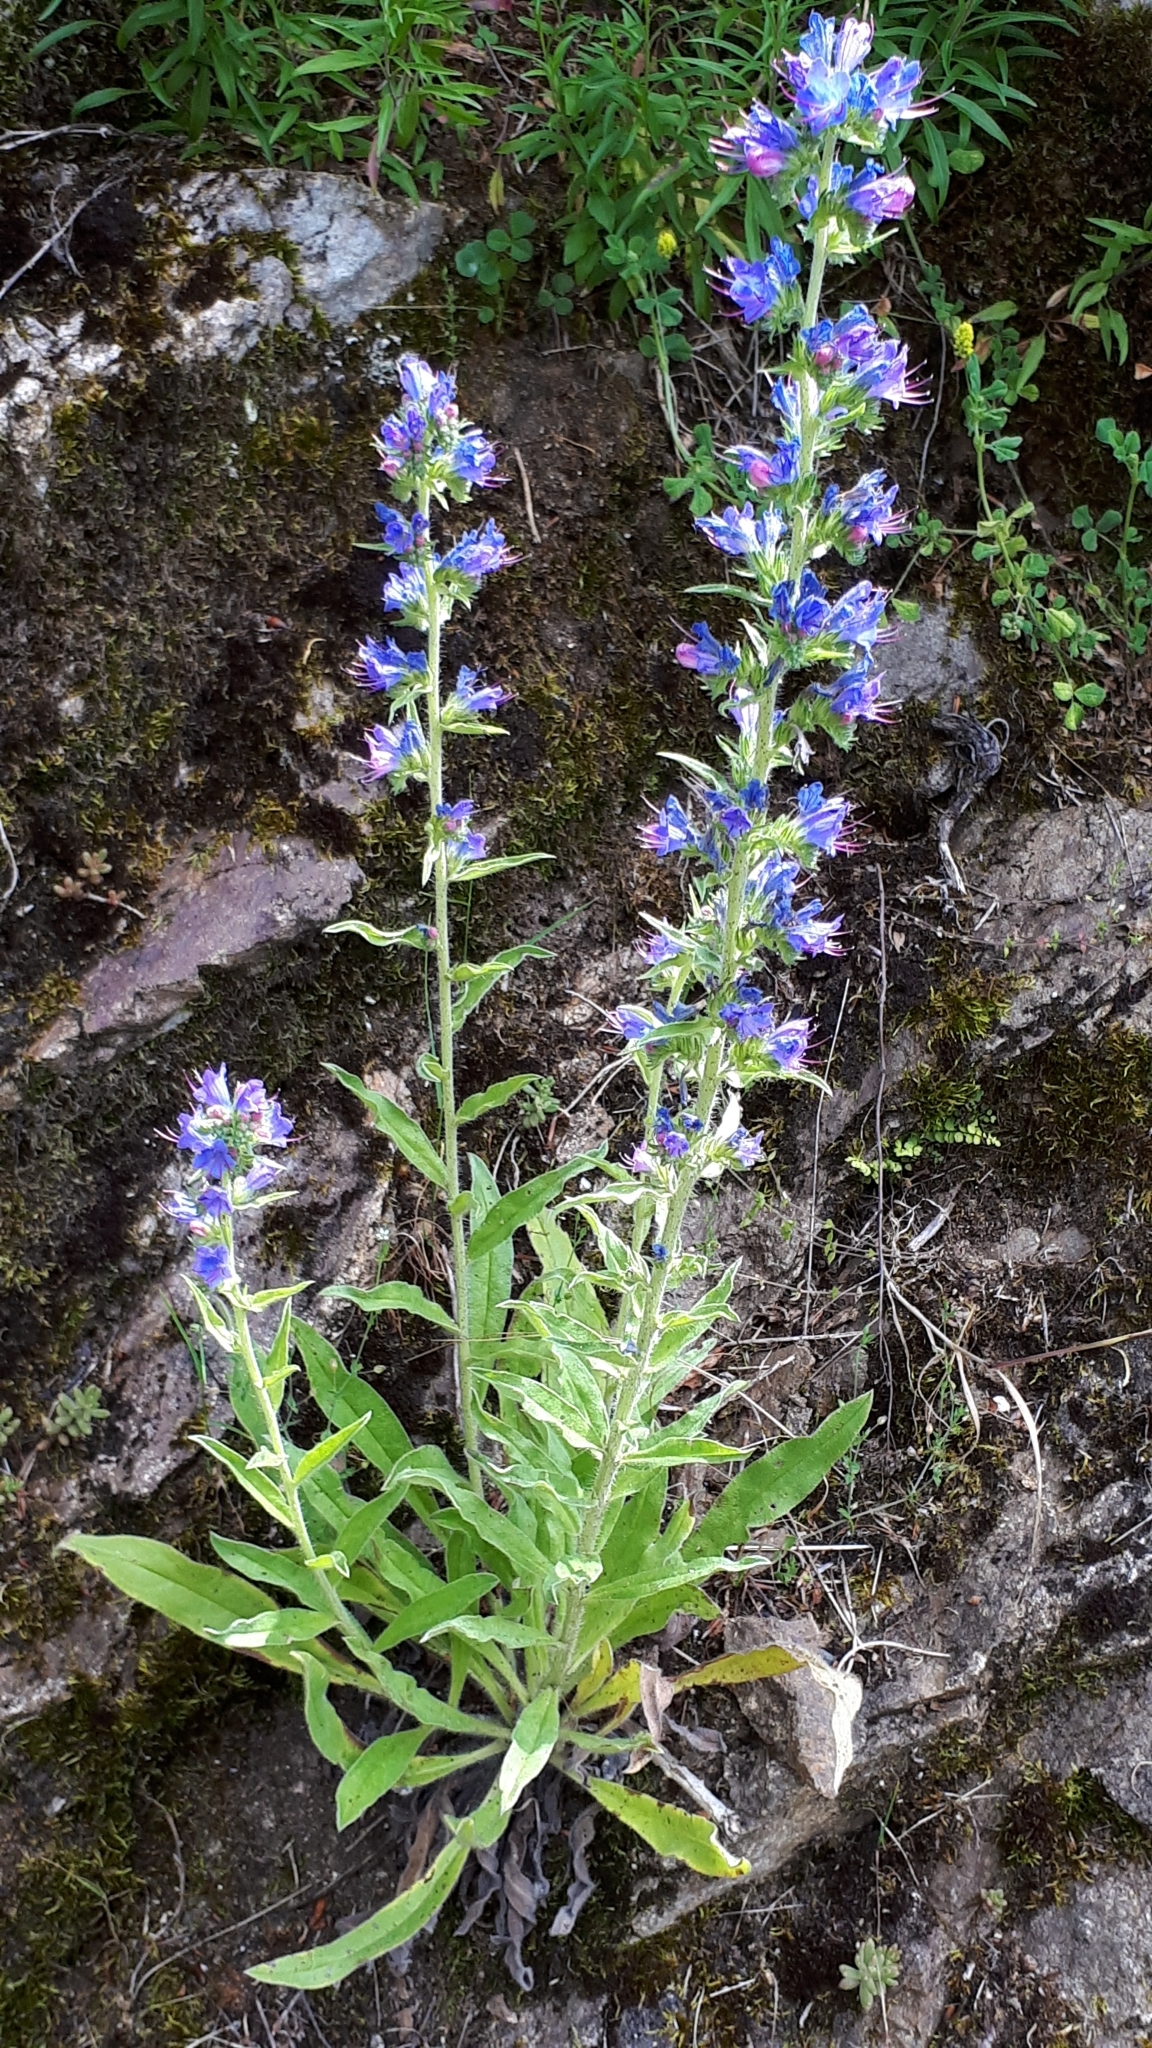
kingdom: Plantae
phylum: Tracheophyta
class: Magnoliopsida
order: Boraginales
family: Boraginaceae
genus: Echium
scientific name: Echium vulgare
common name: Common viper's bugloss
